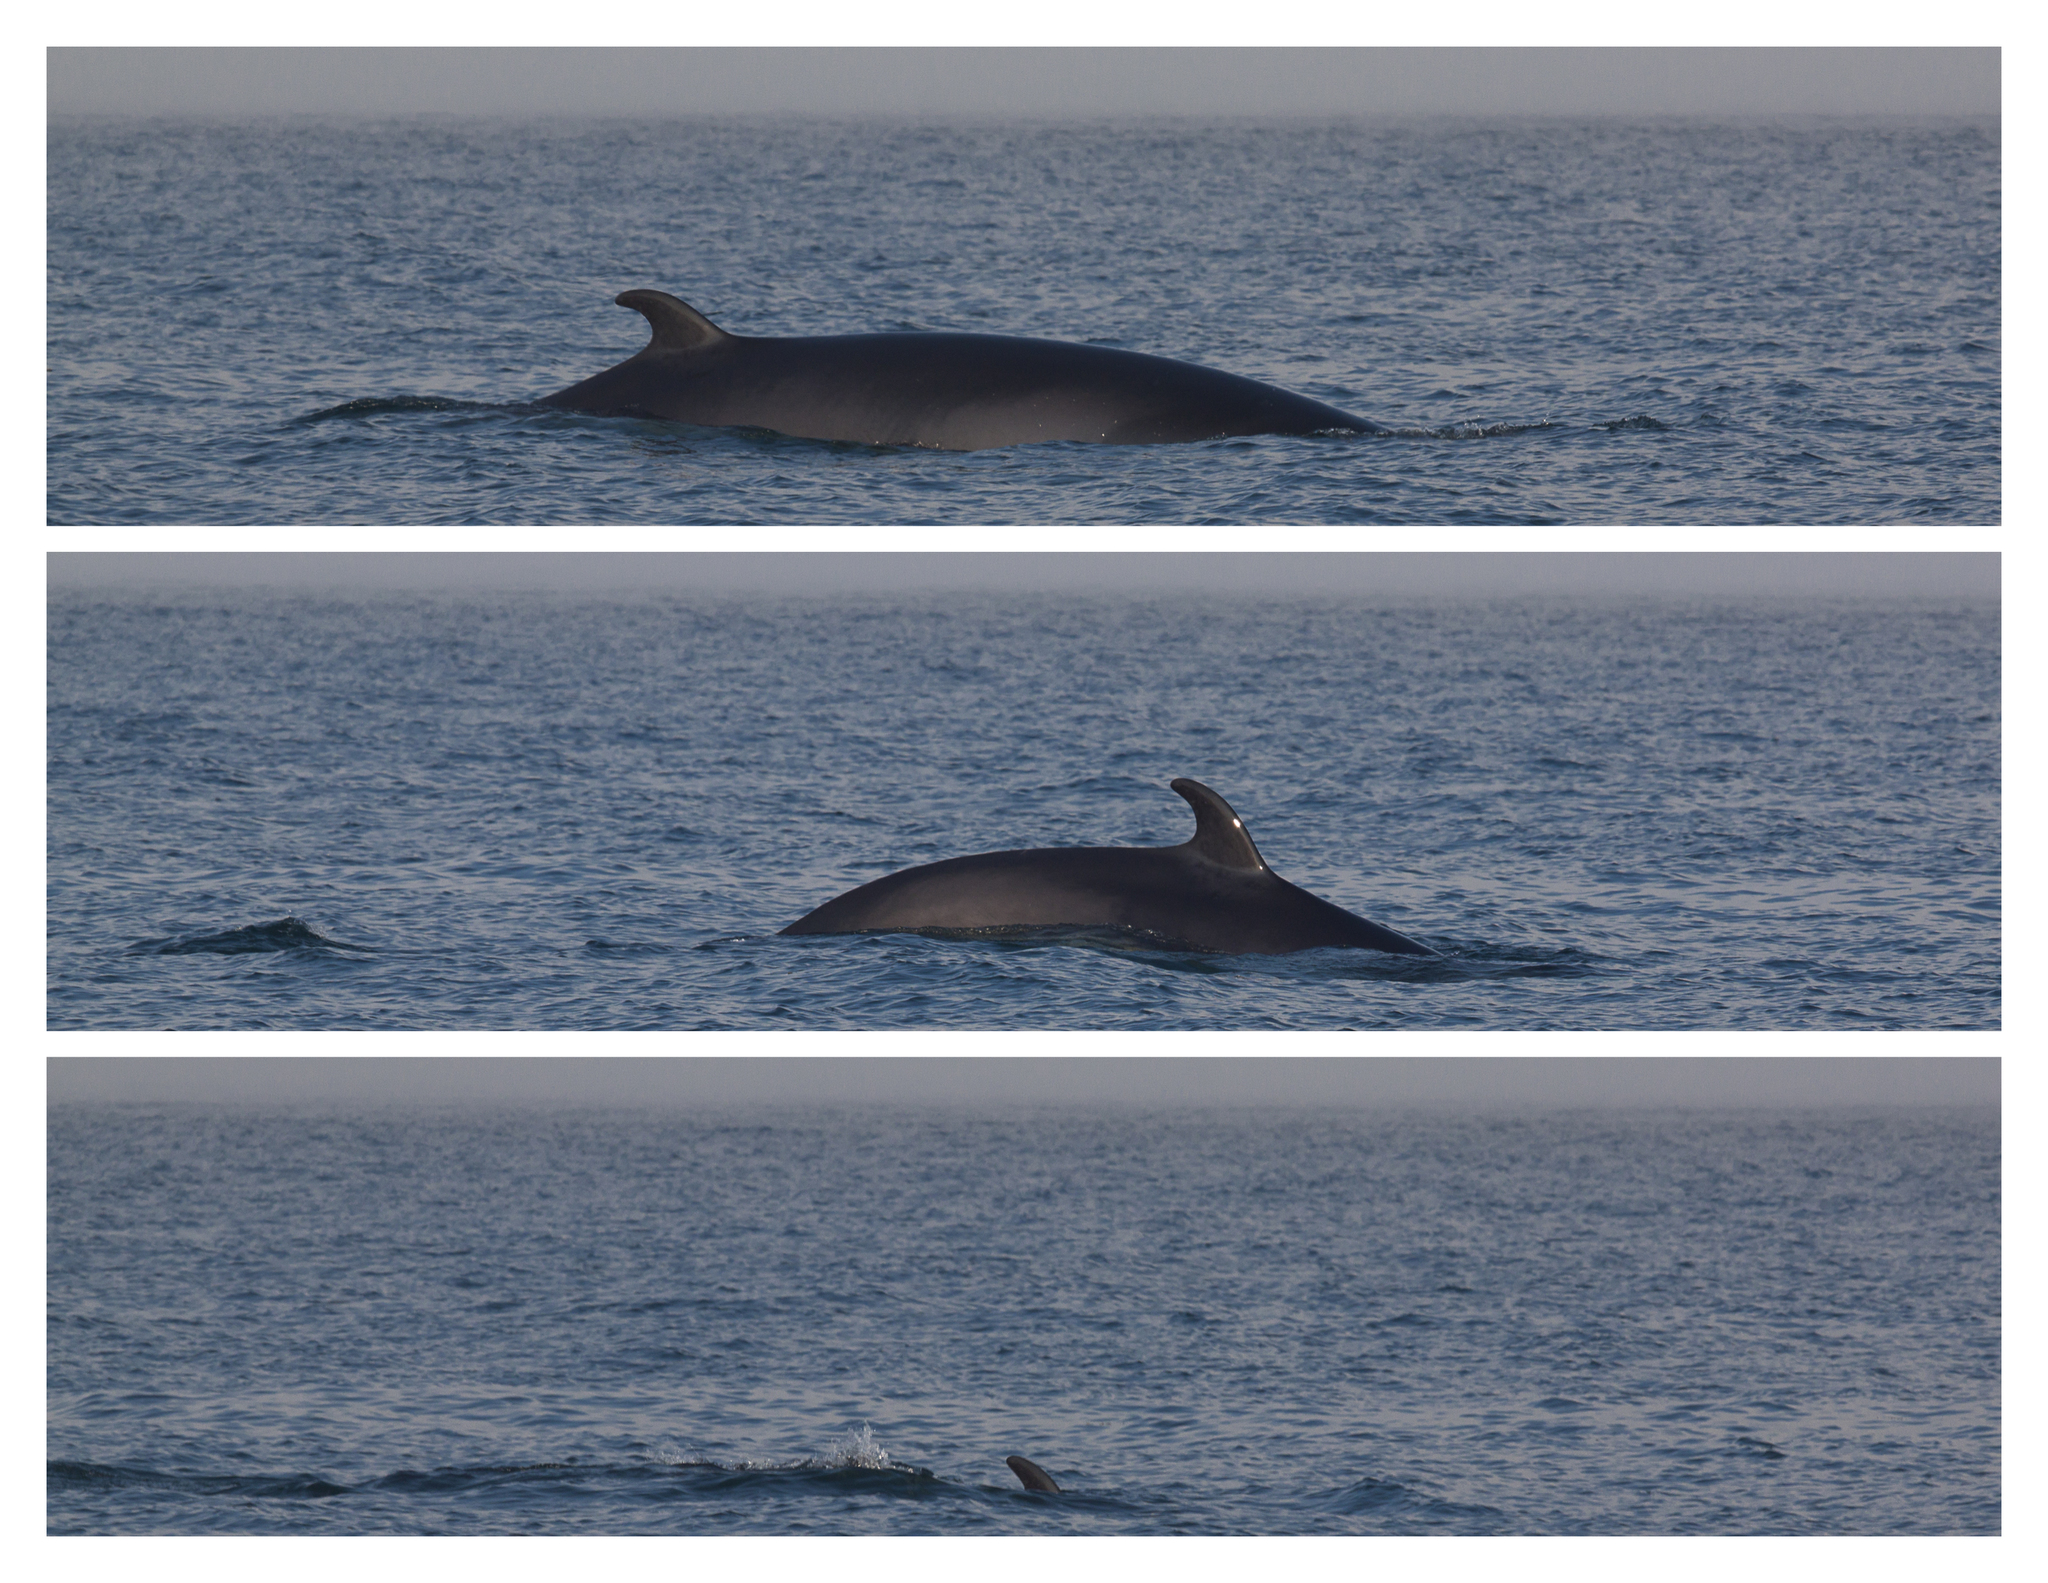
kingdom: Animalia
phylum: Chordata
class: Mammalia
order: Cetacea
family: Balaenopteridae
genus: Balaenoptera
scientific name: Balaenoptera acutorostrata
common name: Common minke whale
